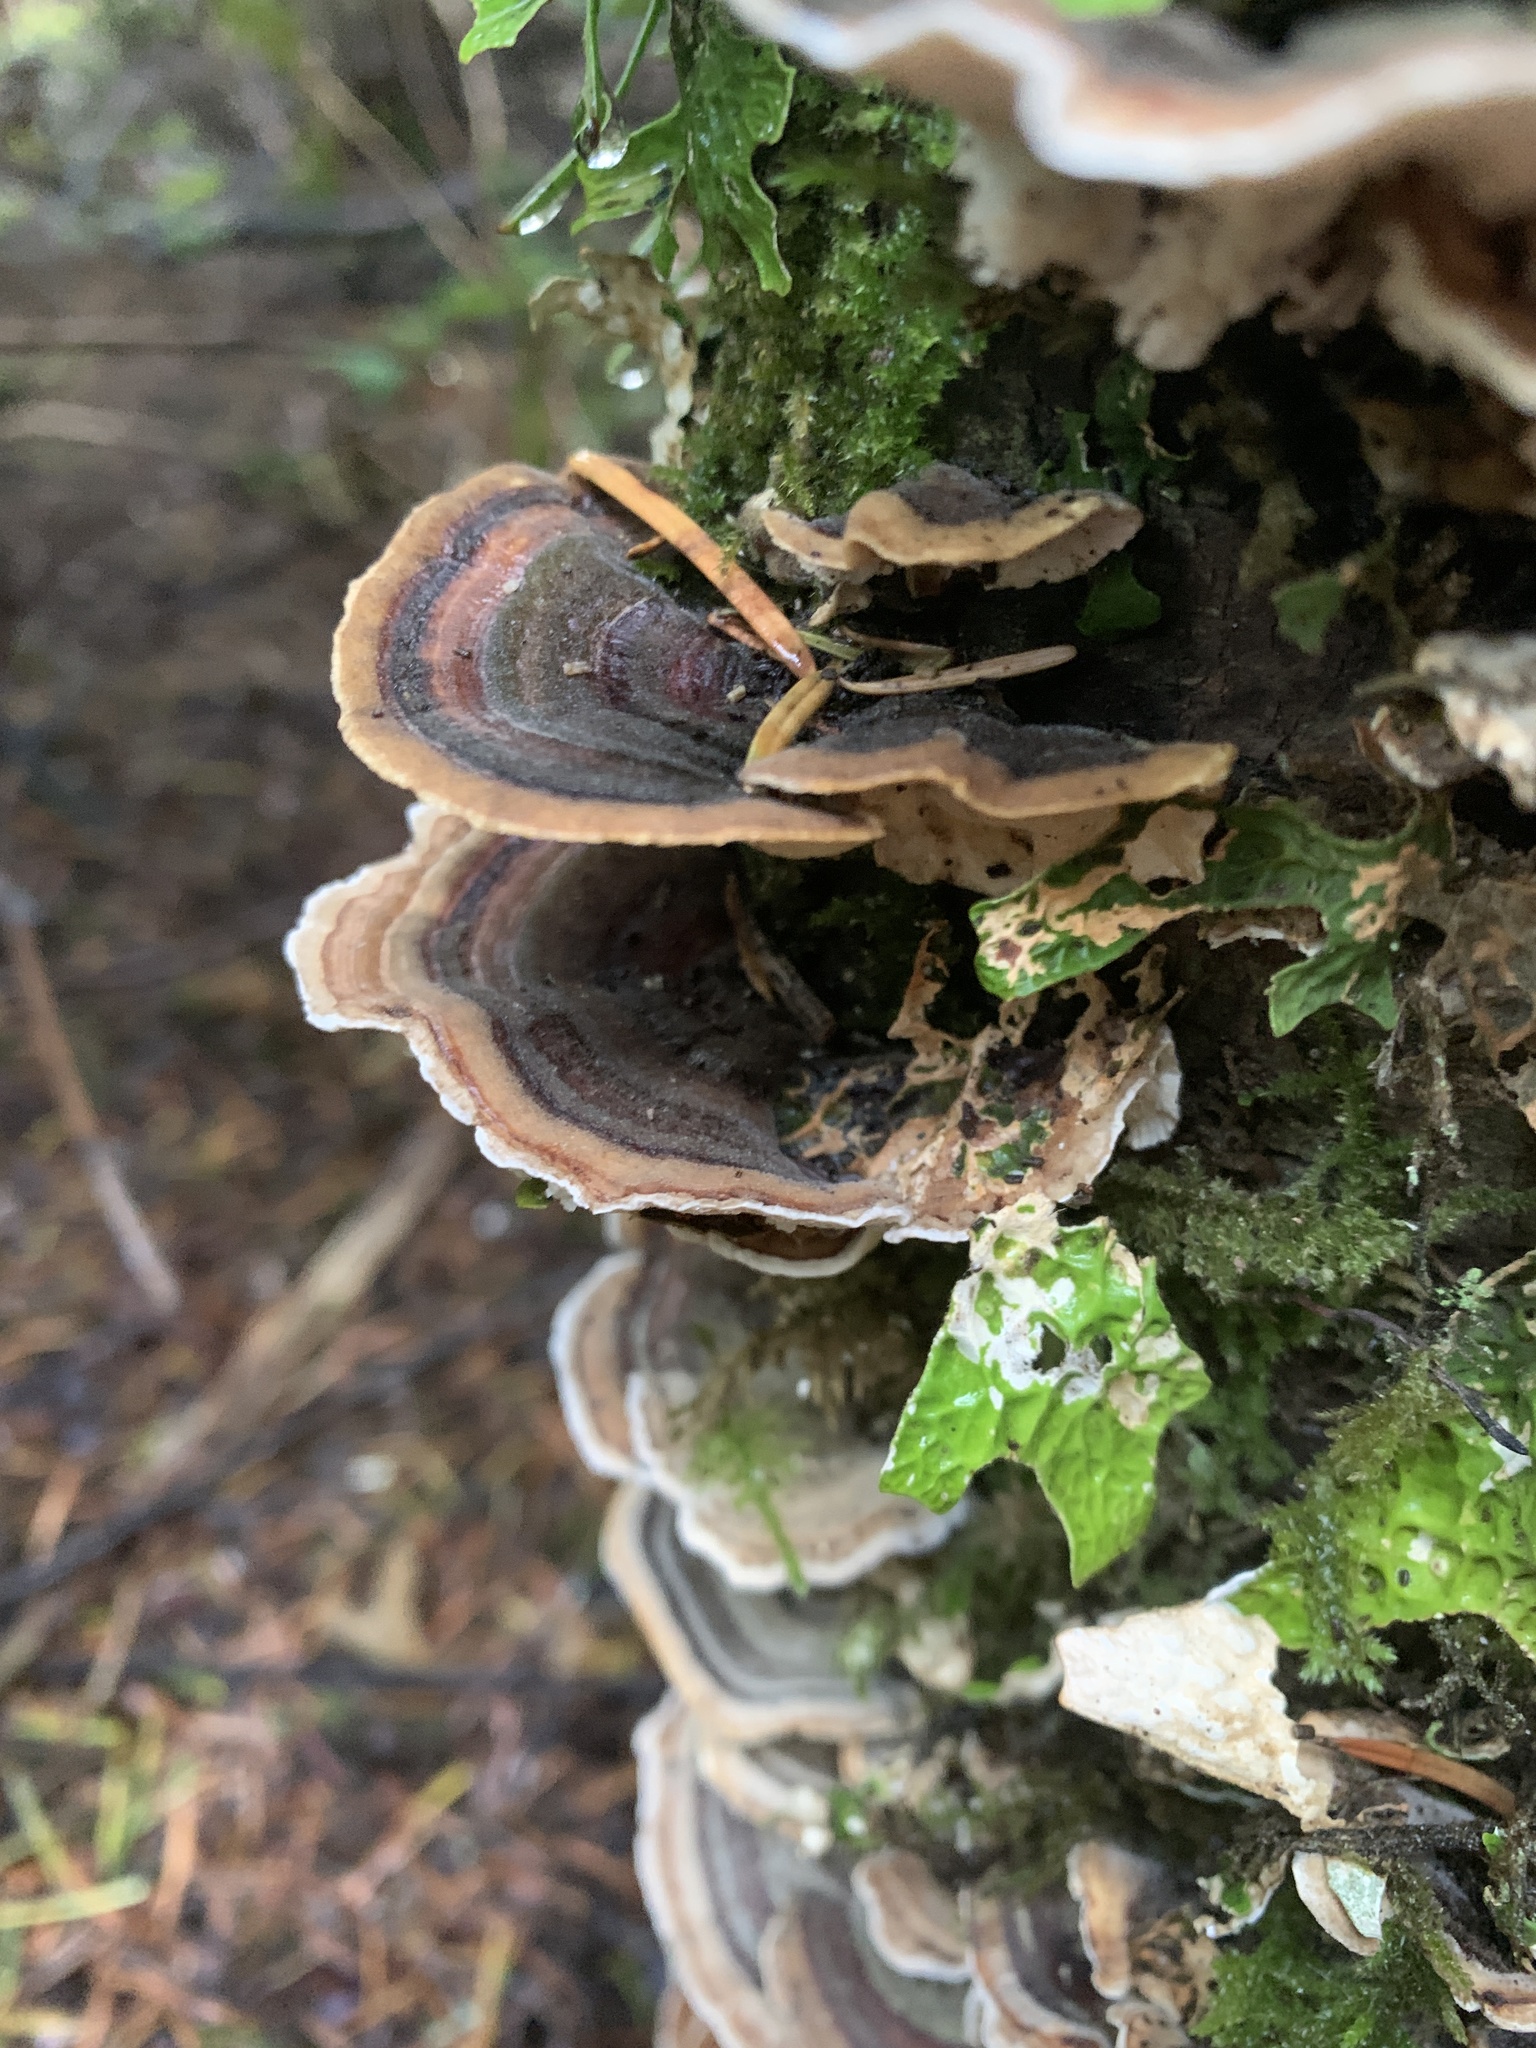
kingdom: Fungi
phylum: Basidiomycota
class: Agaricomycetes
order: Polyporales
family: Polyporaceae
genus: Trametes
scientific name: Trametes versicolor
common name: Turkeytail
